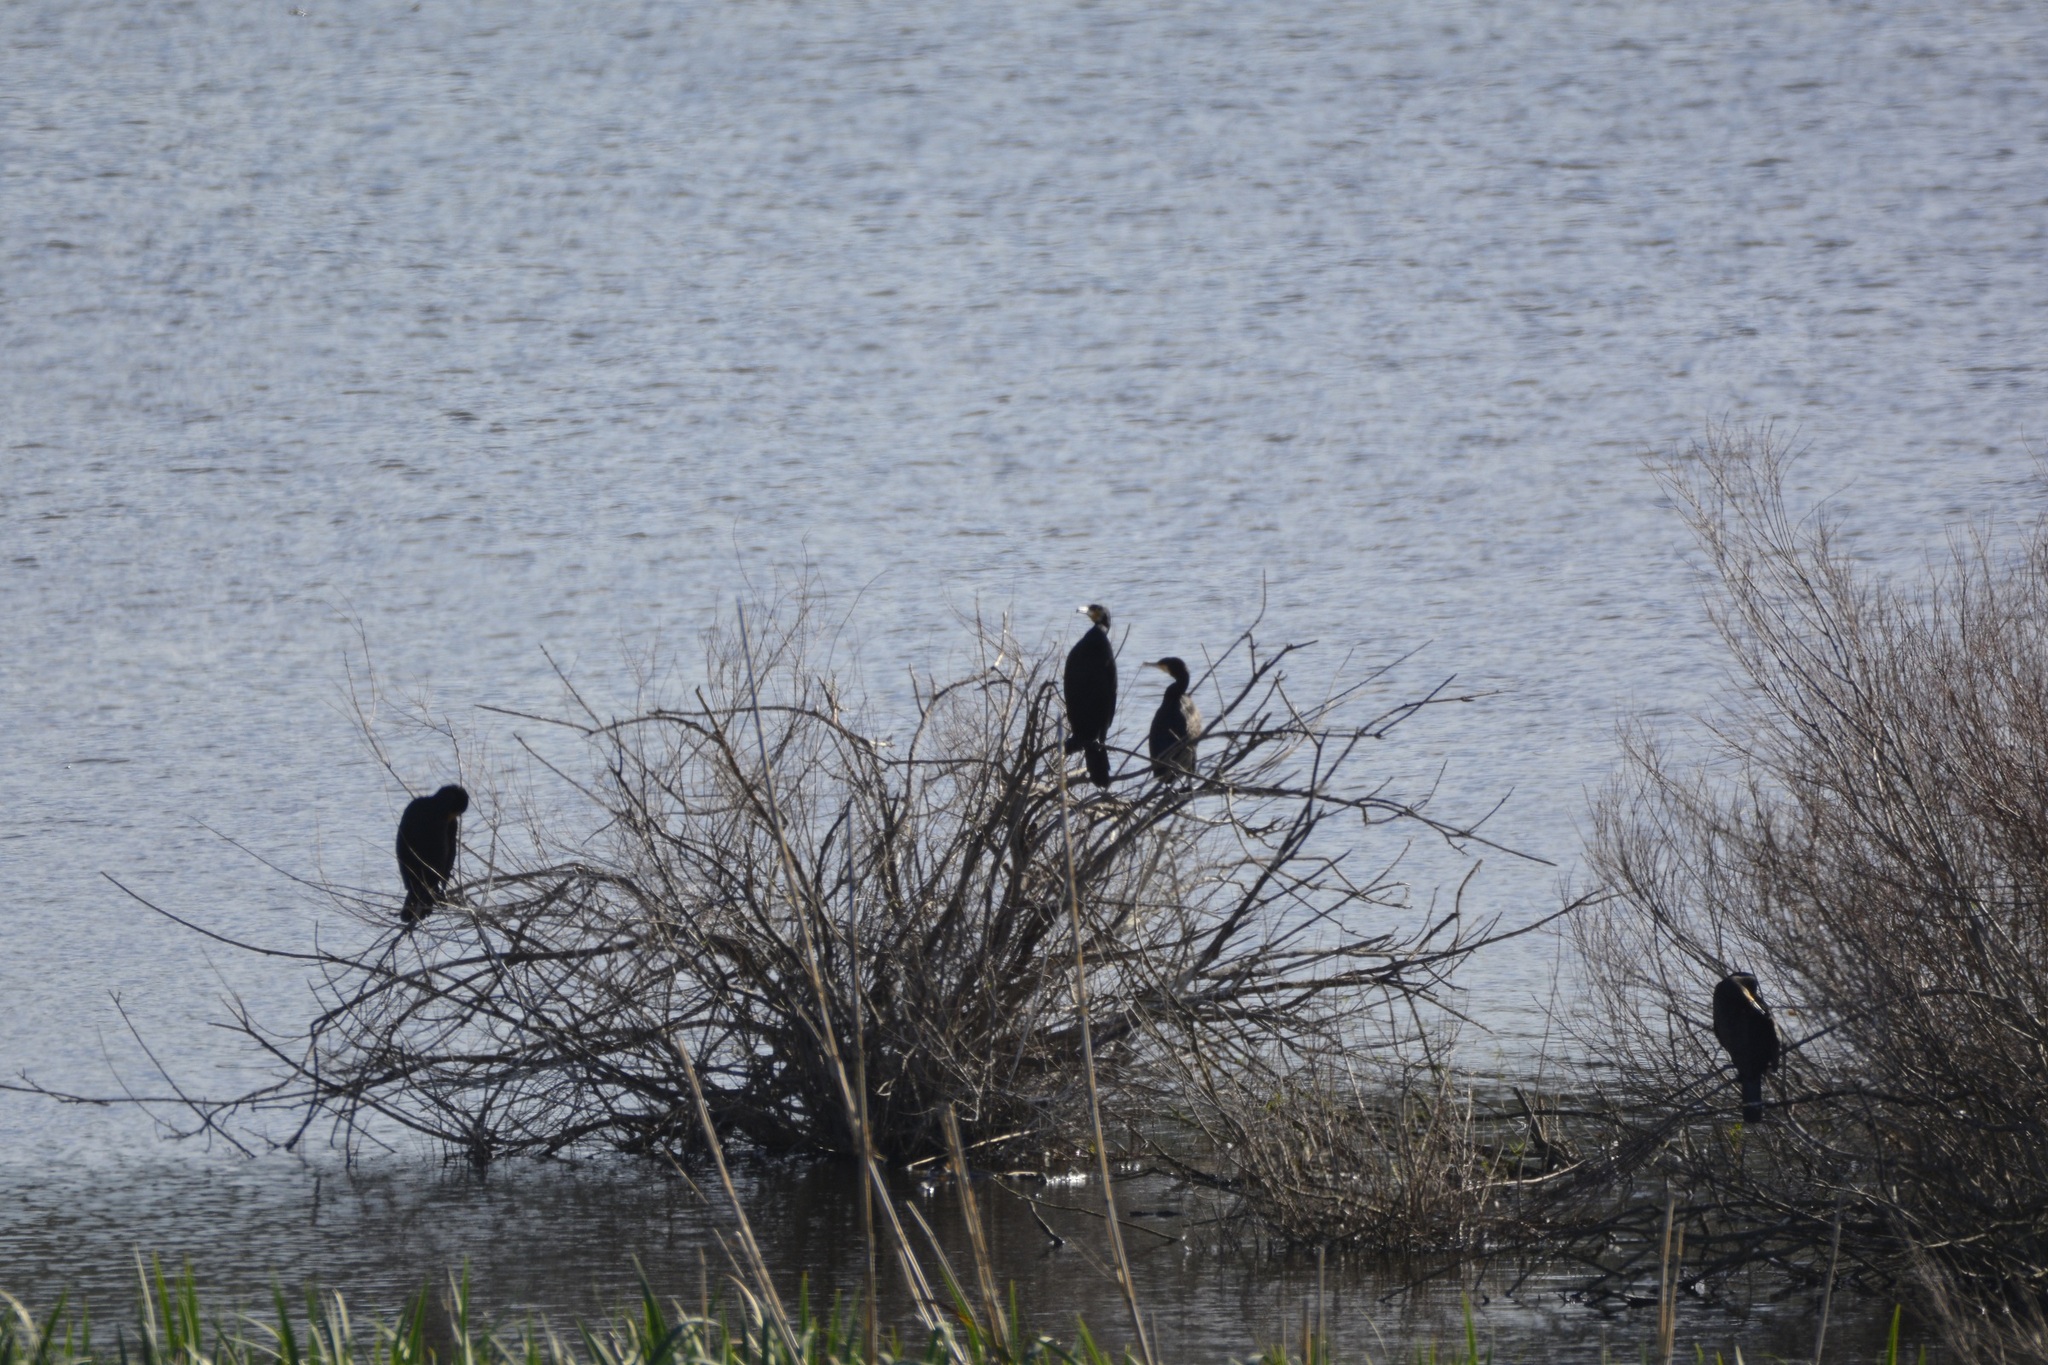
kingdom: Animalia
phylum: Chordata
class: Aves
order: Suliformes
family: Phalacrocoracidae
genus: Phalacrocorax
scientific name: Phalacrocorax carbo
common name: Great cormorant
